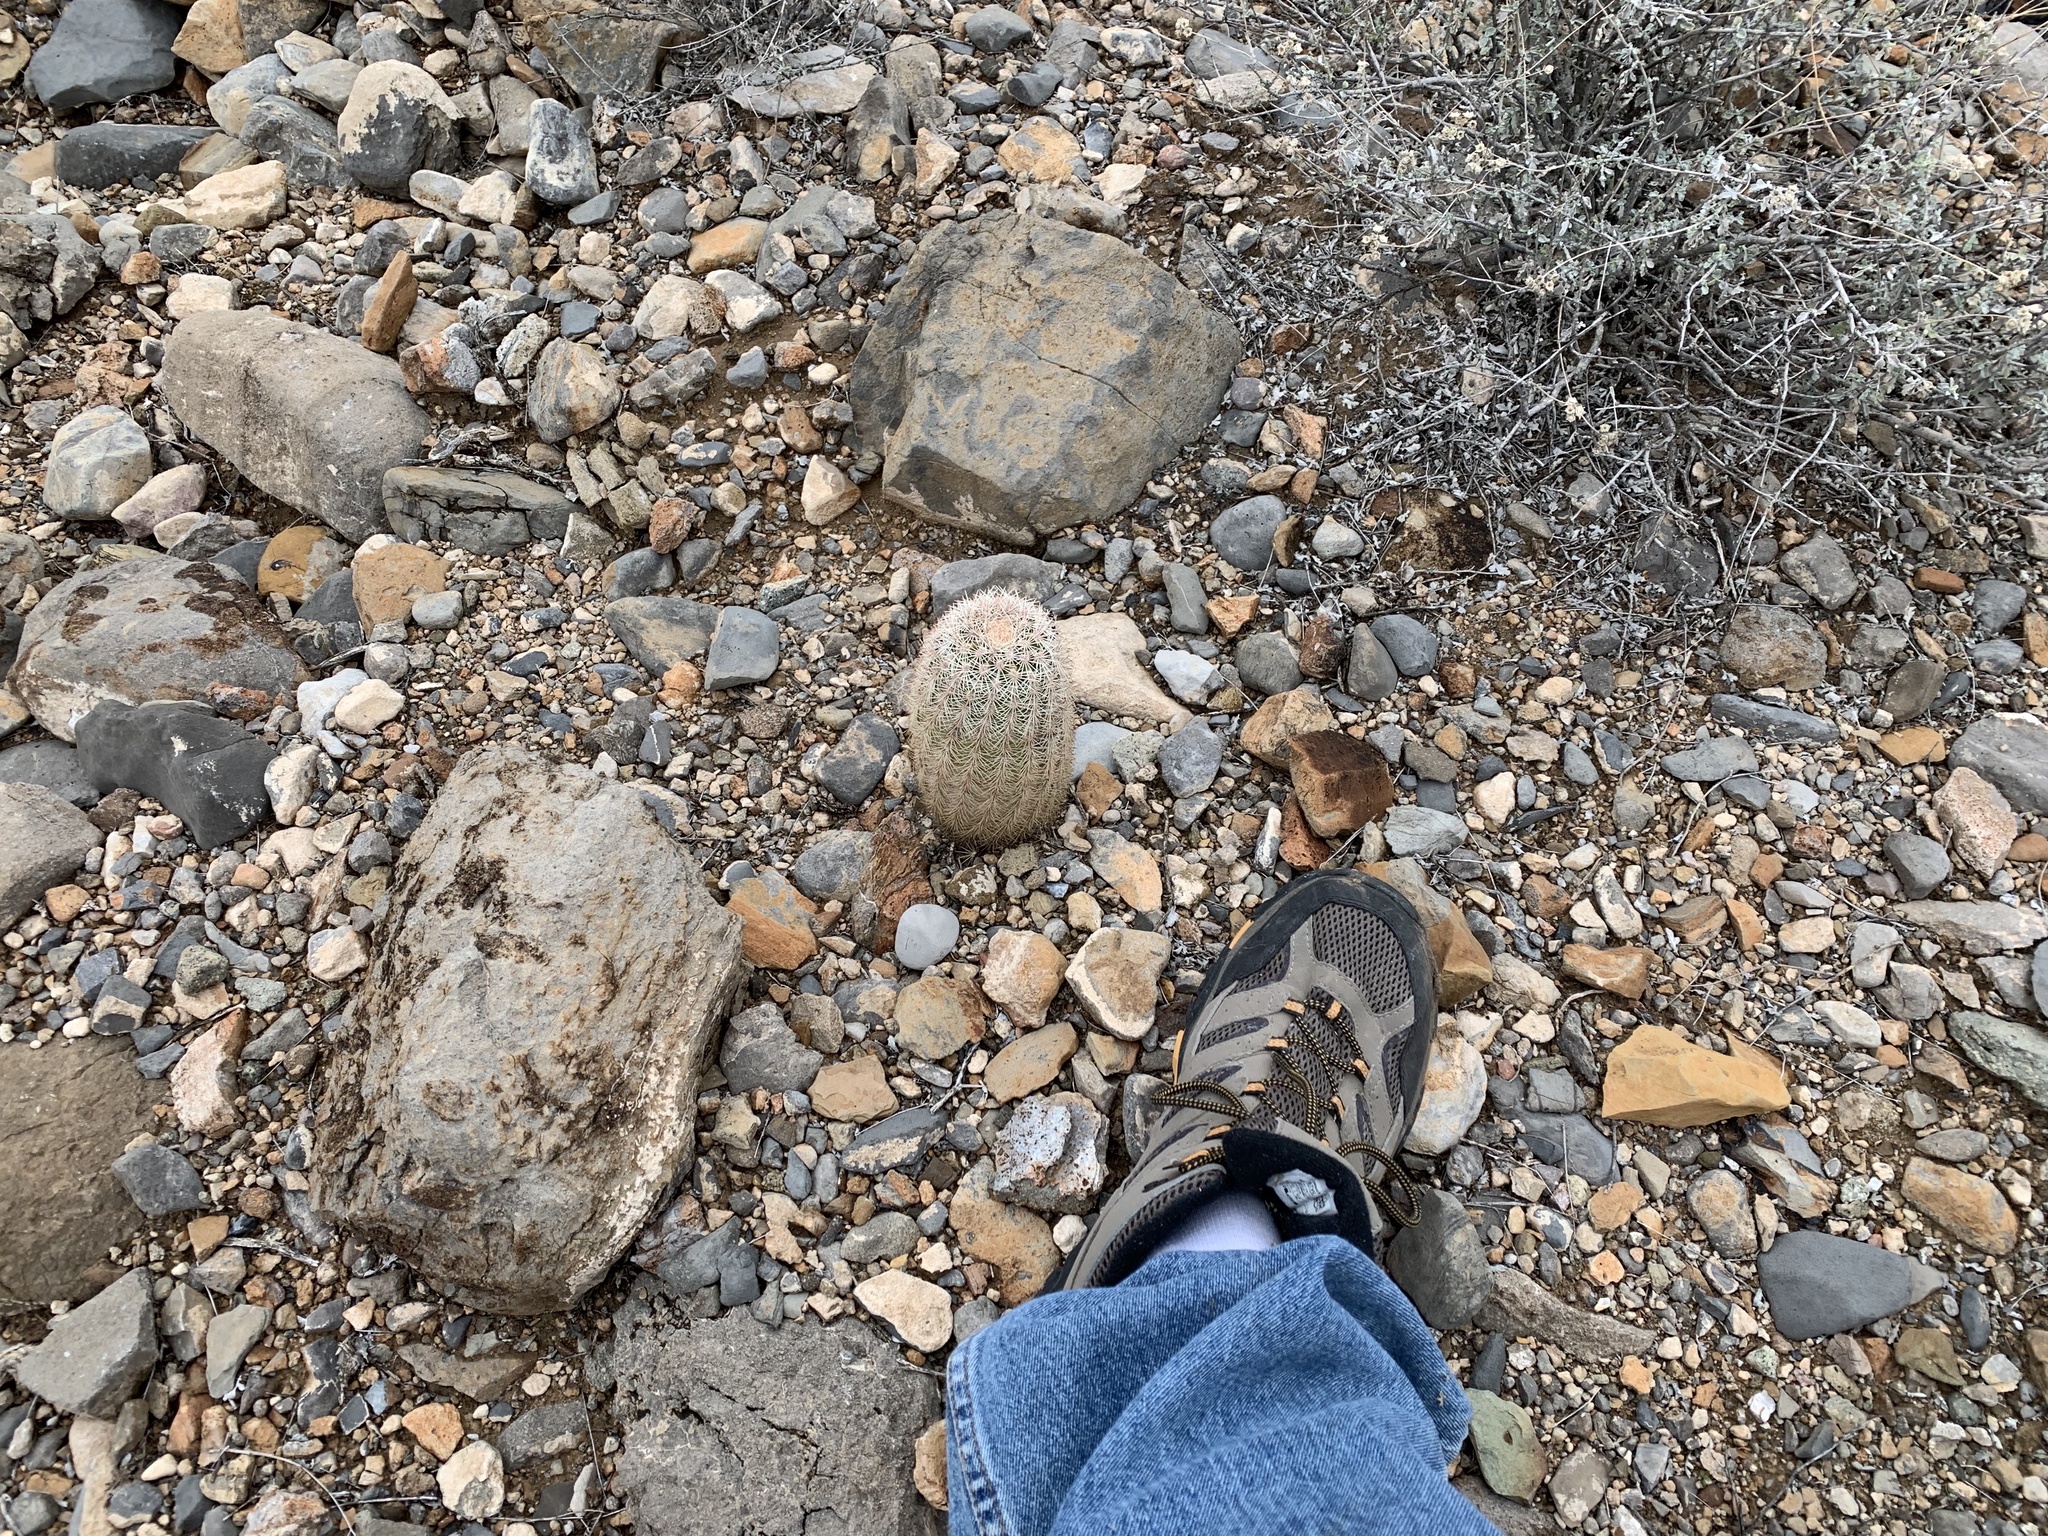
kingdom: Plantae
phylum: Tracheophyta
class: Magnoliopsida
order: Caryophyllales
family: Cactaceae
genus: Echinocereus
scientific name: Echinocereus dasyacanthus
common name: Spiny hedgehog cactus
